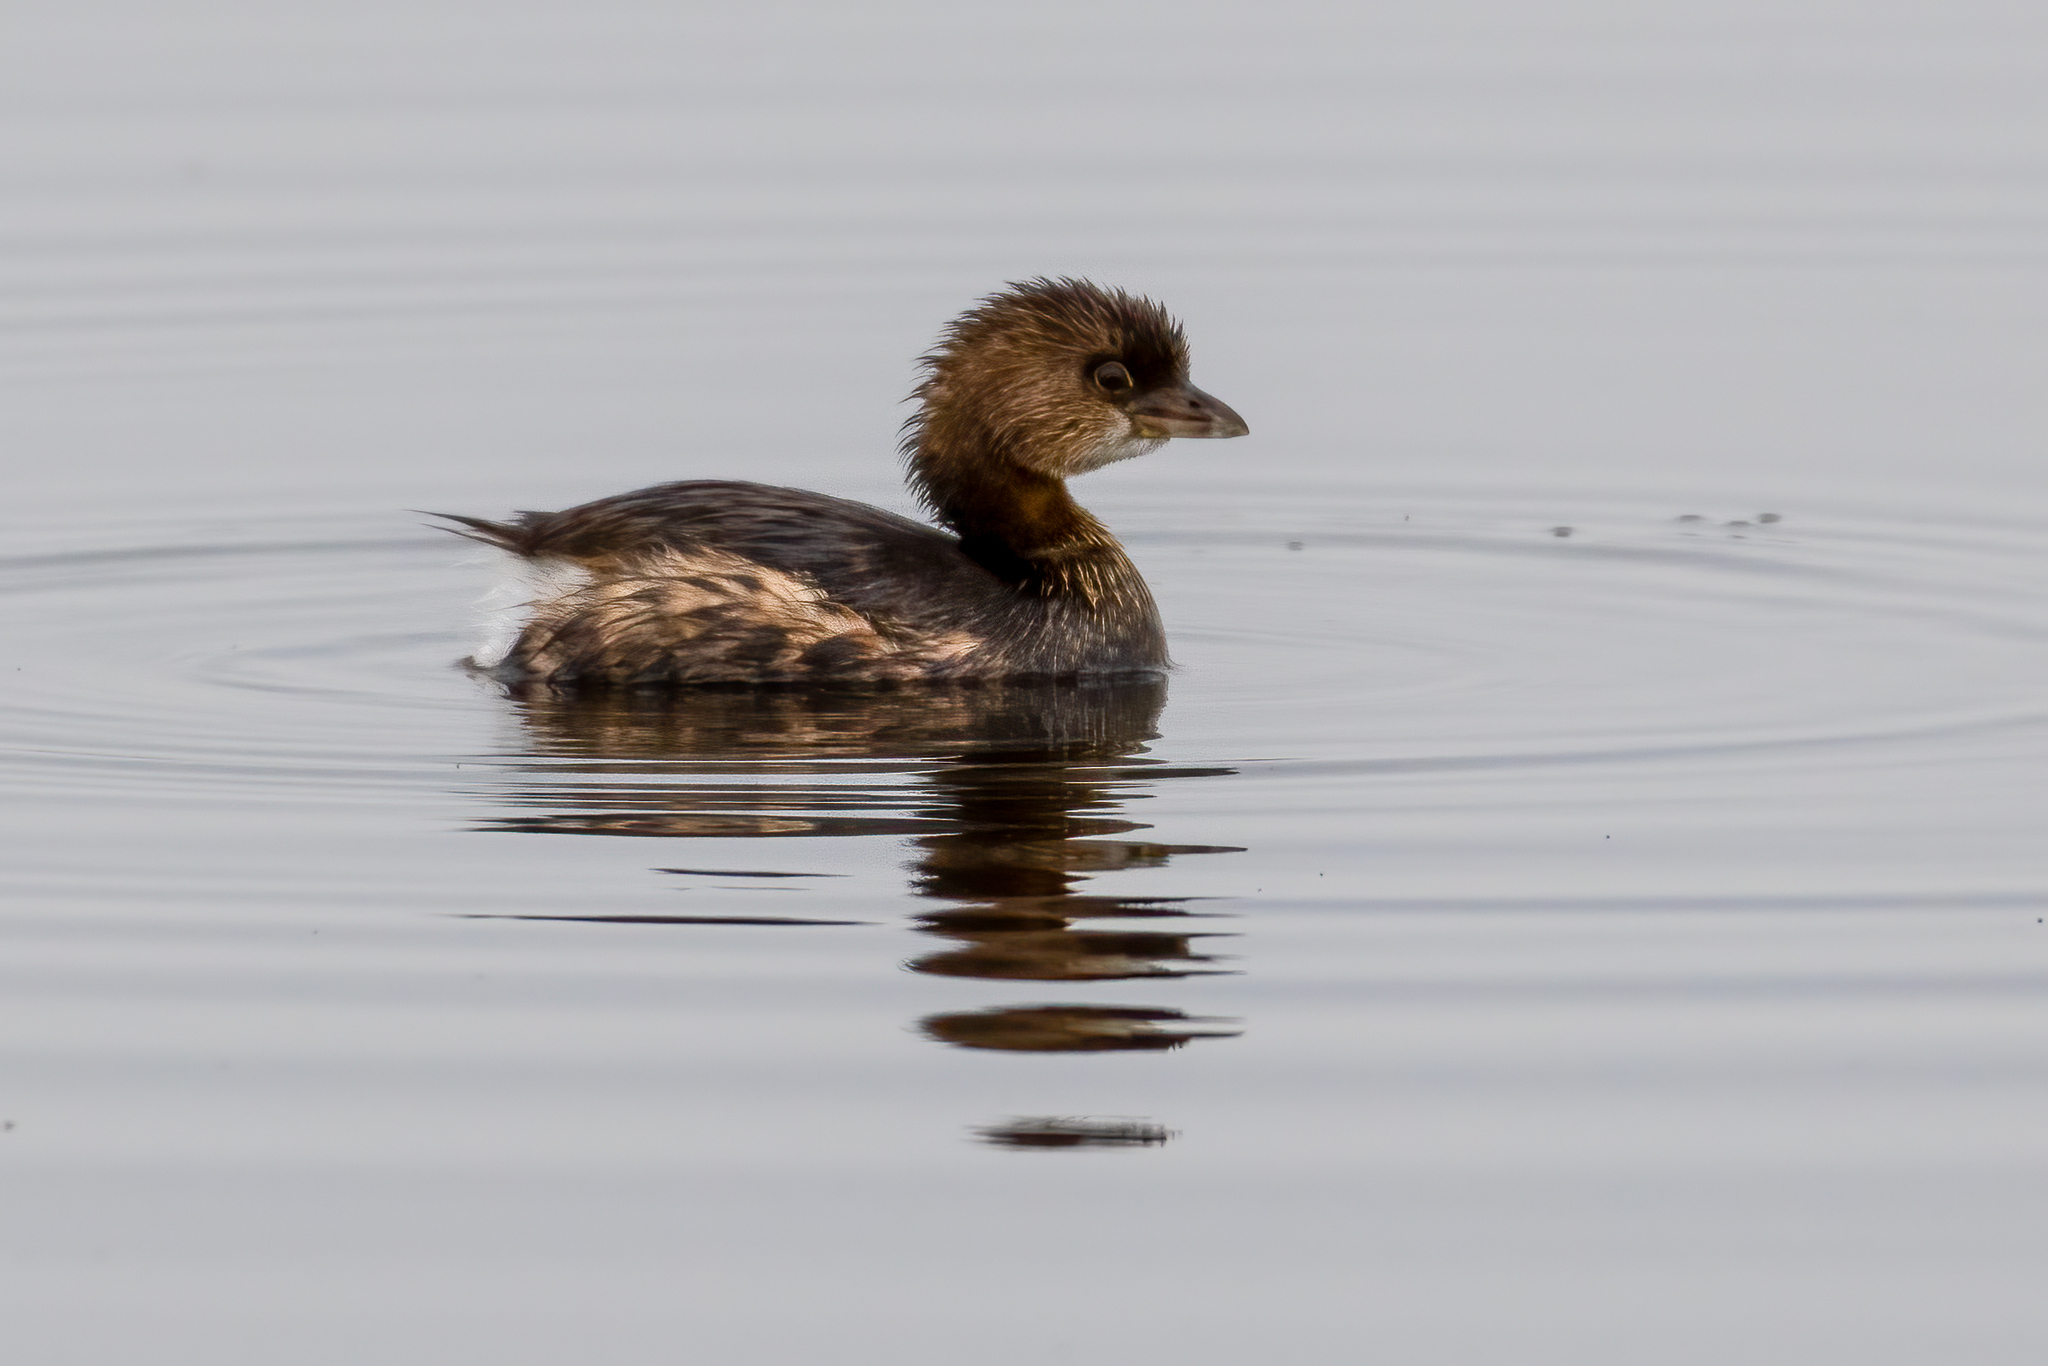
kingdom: Animalia
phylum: Chordata
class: Aves
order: Podicipediformes
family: Podicipedidae
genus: Podilymbus
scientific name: Podilymbus podiceps
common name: Pied-billed grebe
